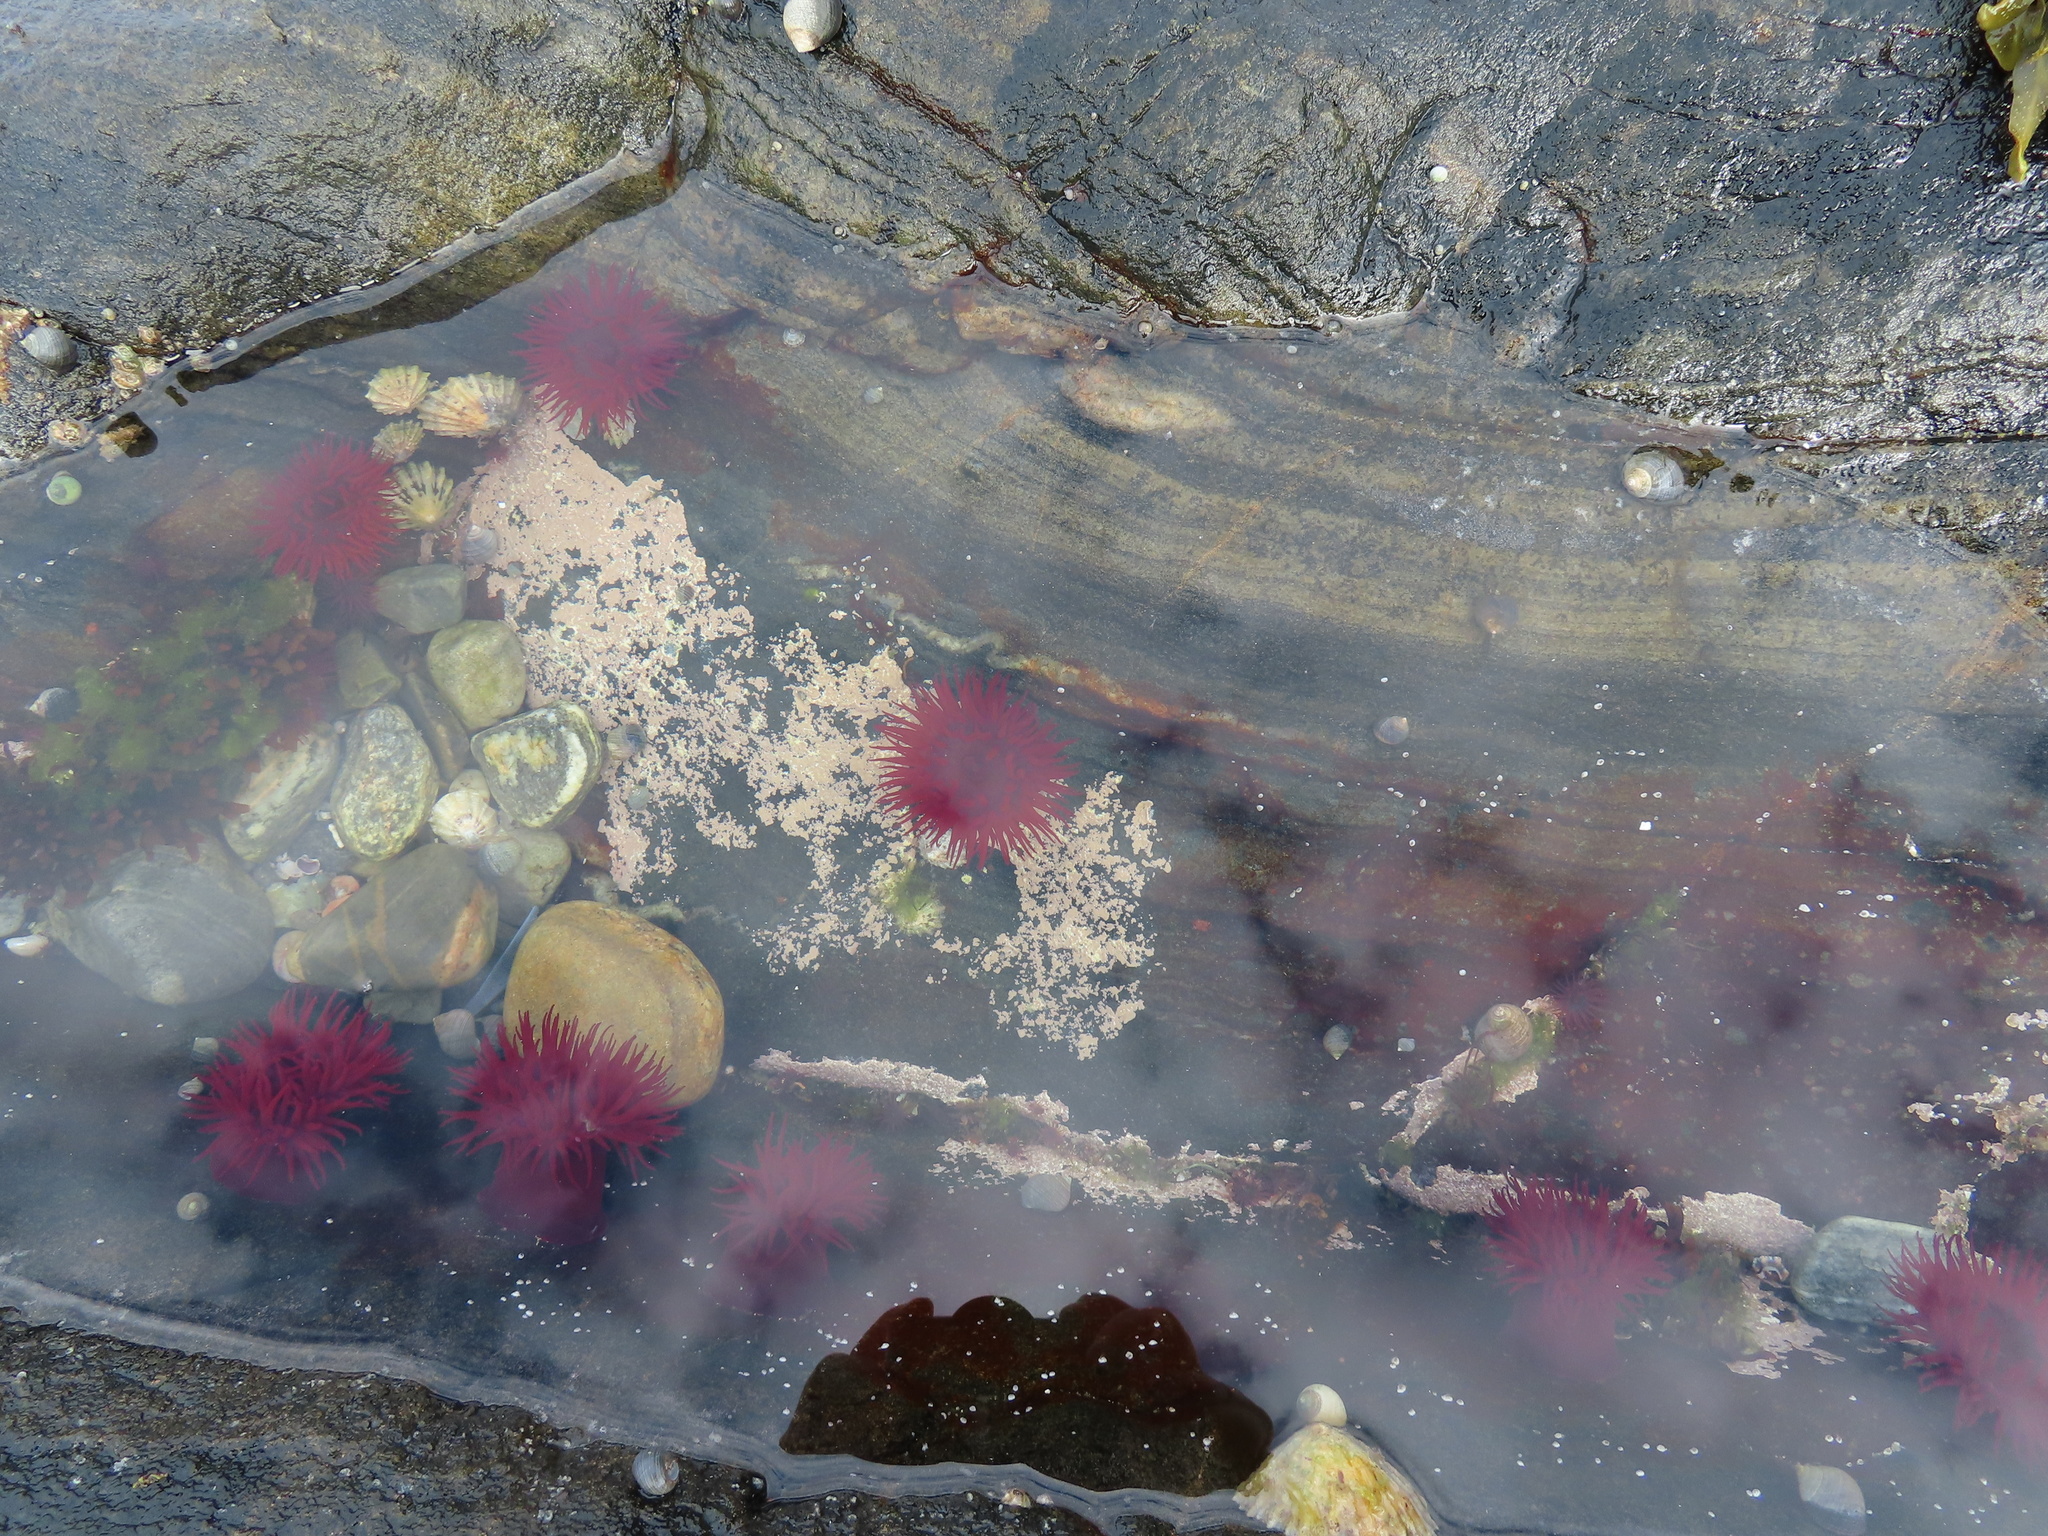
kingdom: Animalia
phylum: Cnidaria
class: Anthozoa
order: Actiniaria
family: Actiniidae
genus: Actinia
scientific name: Actinia equina
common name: Beadlet anemone
